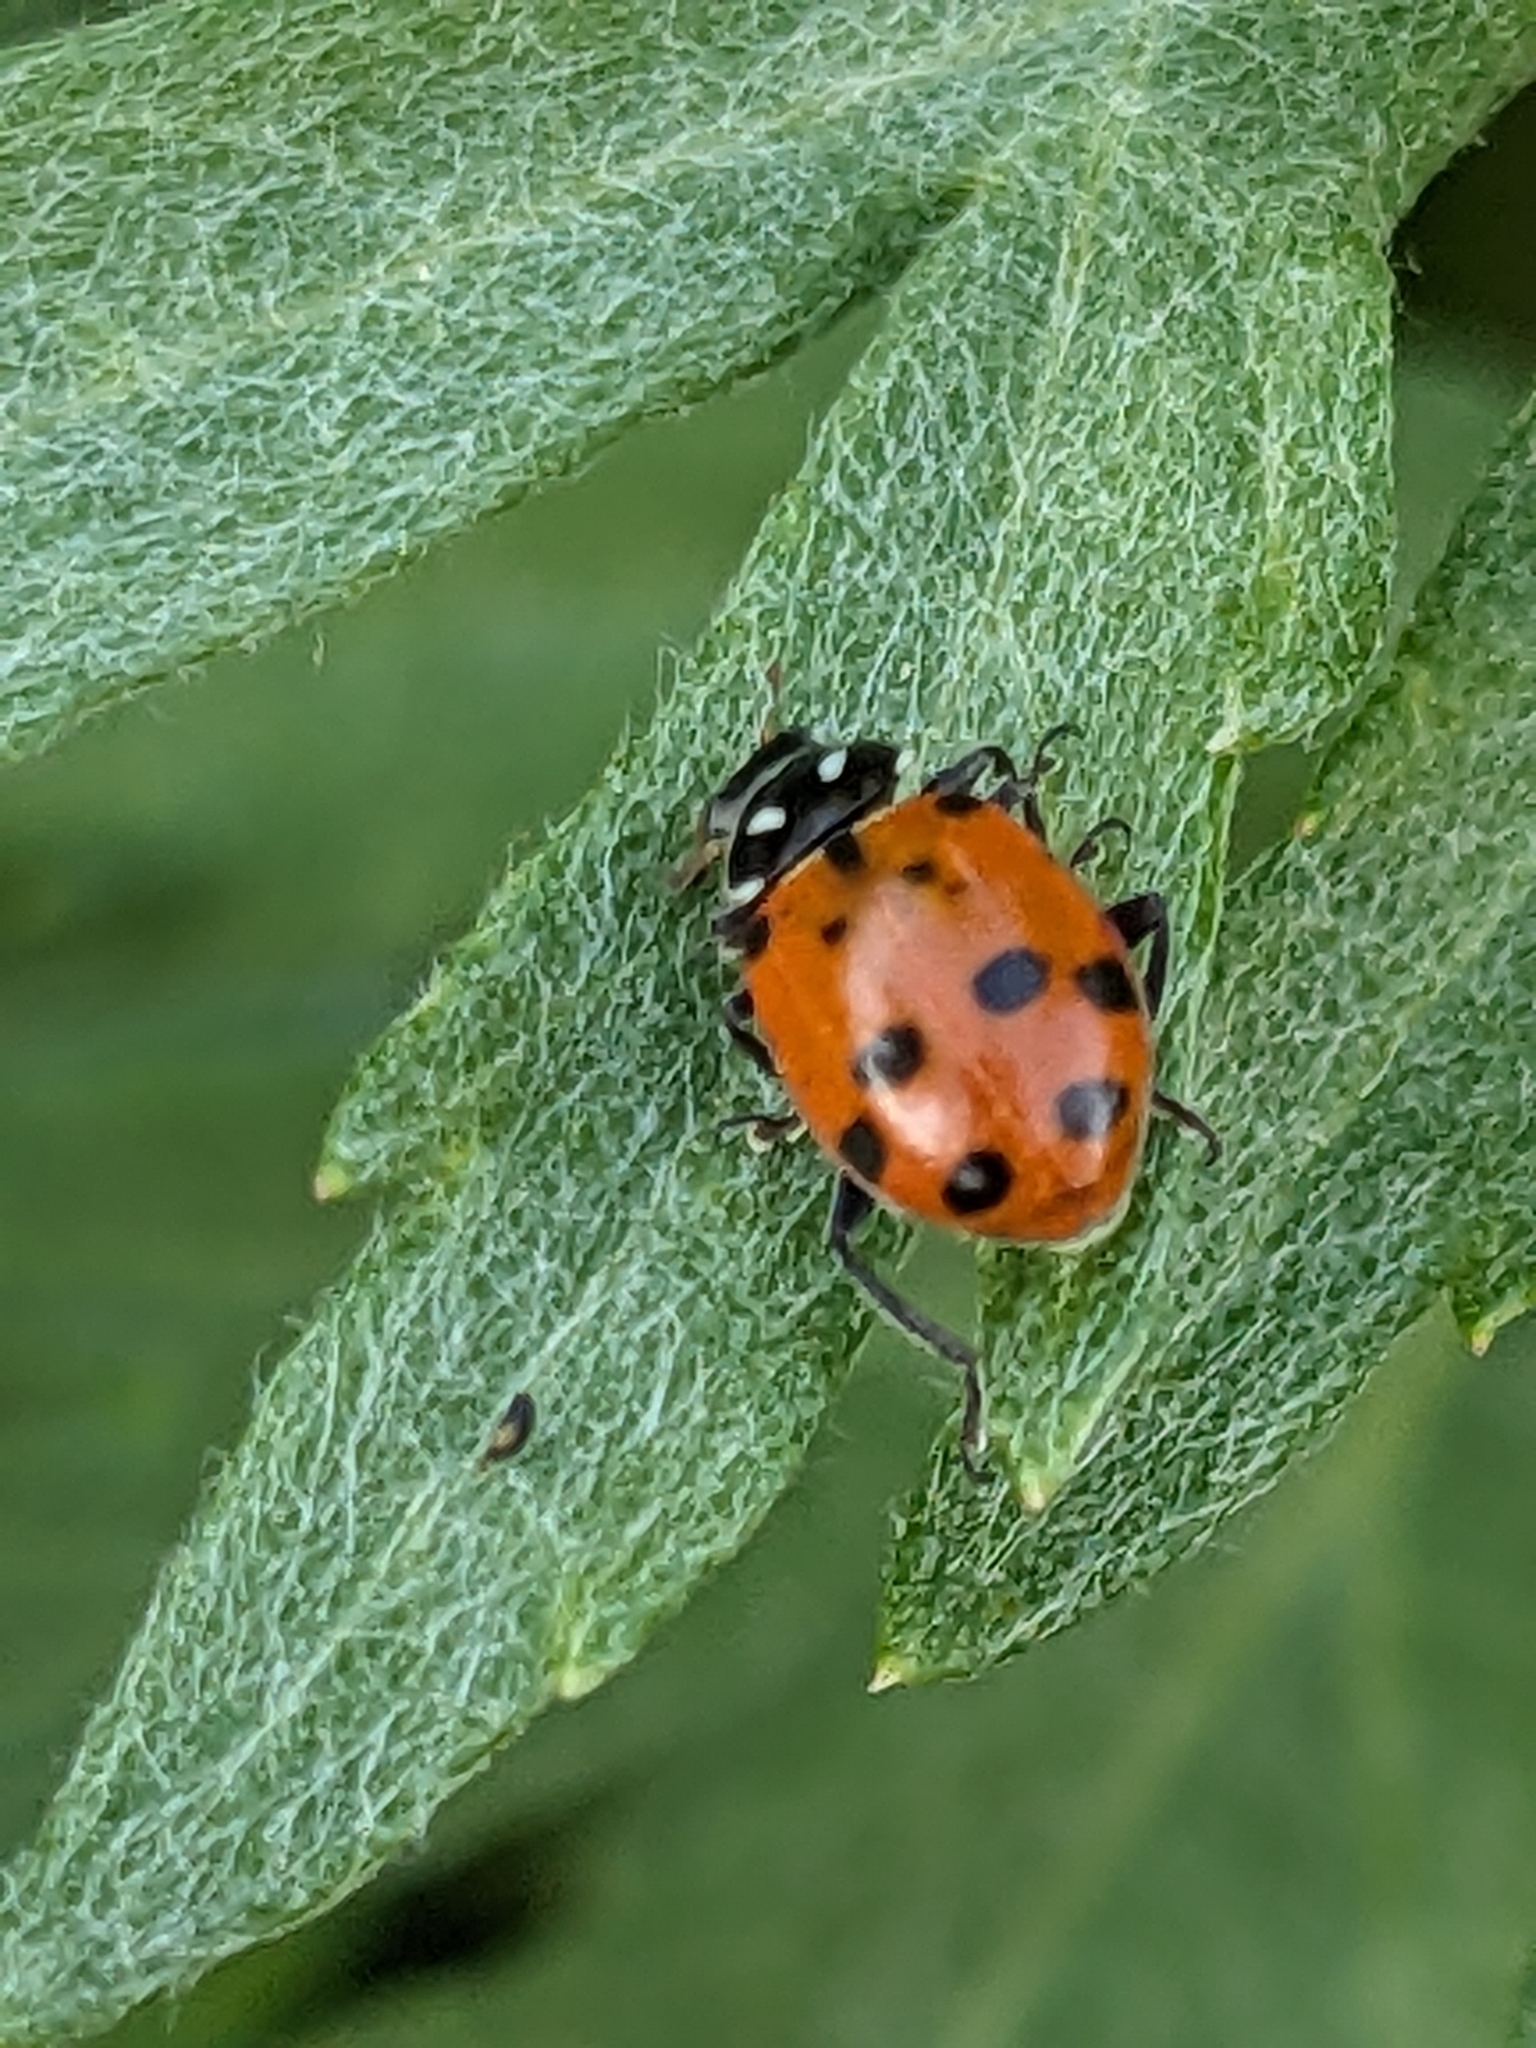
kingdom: Animalia
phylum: Arthropoda
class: Insecta
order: Coleoptera
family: Coccinellidae
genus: Hippodamia
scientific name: Hippodamia convergens
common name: Convergent lady beetle
